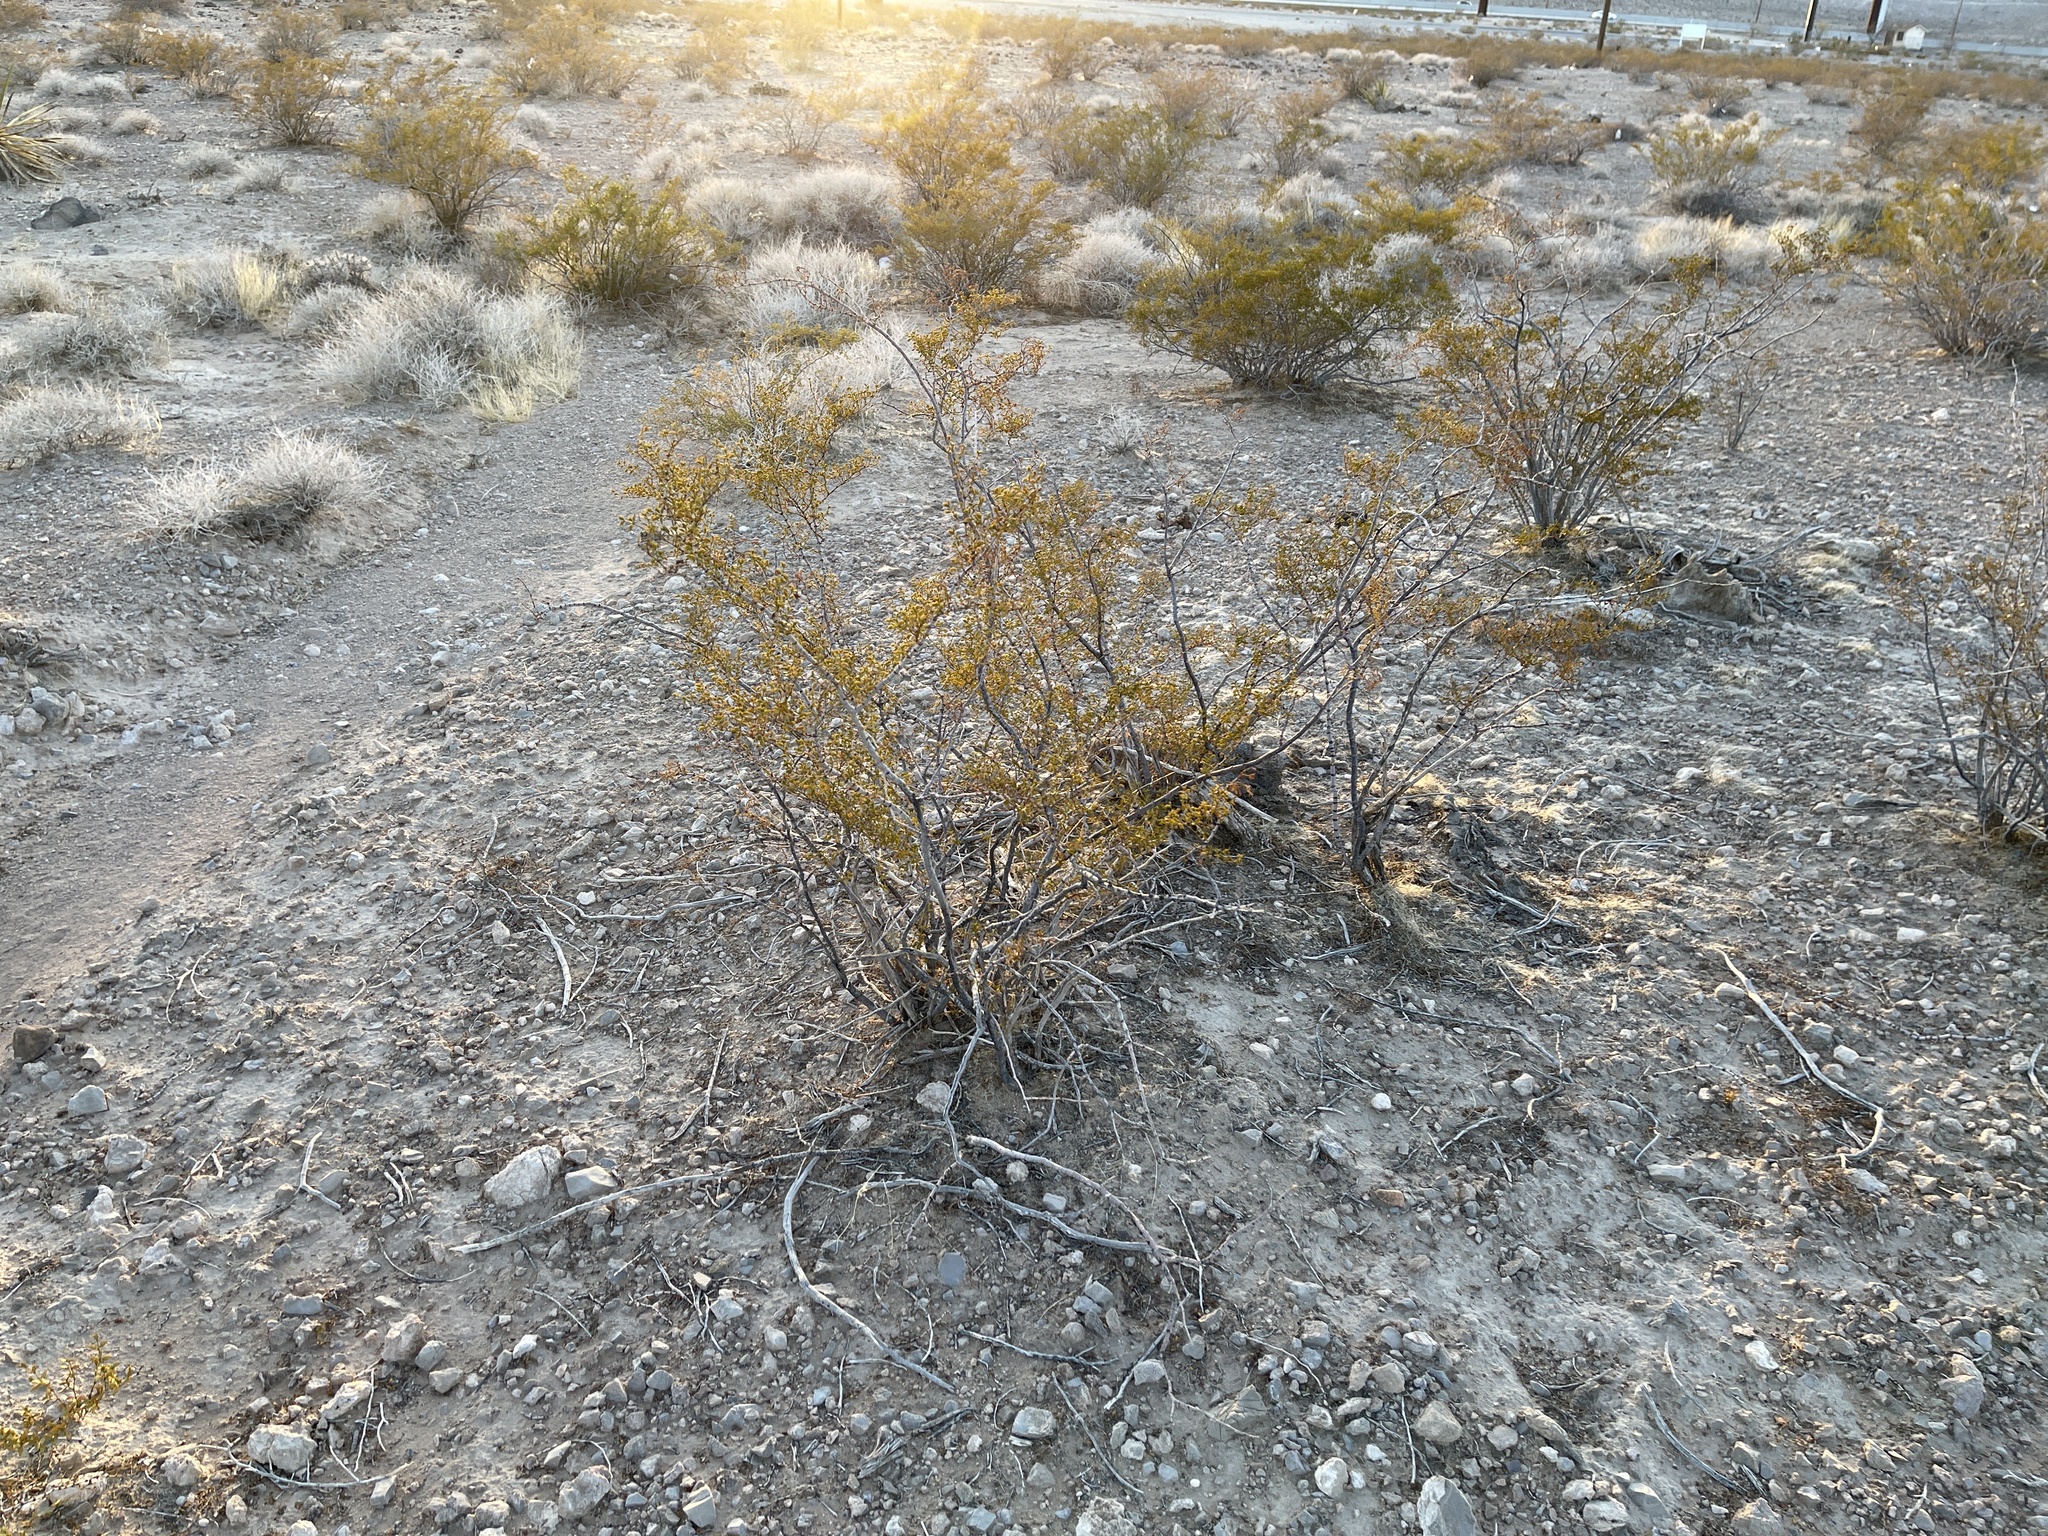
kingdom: Plantae
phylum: Tracheophyta
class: Magnoliopsida
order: Zygophyllales
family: Zygophyllaceae
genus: Larrea
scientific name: Larrea tridentata
